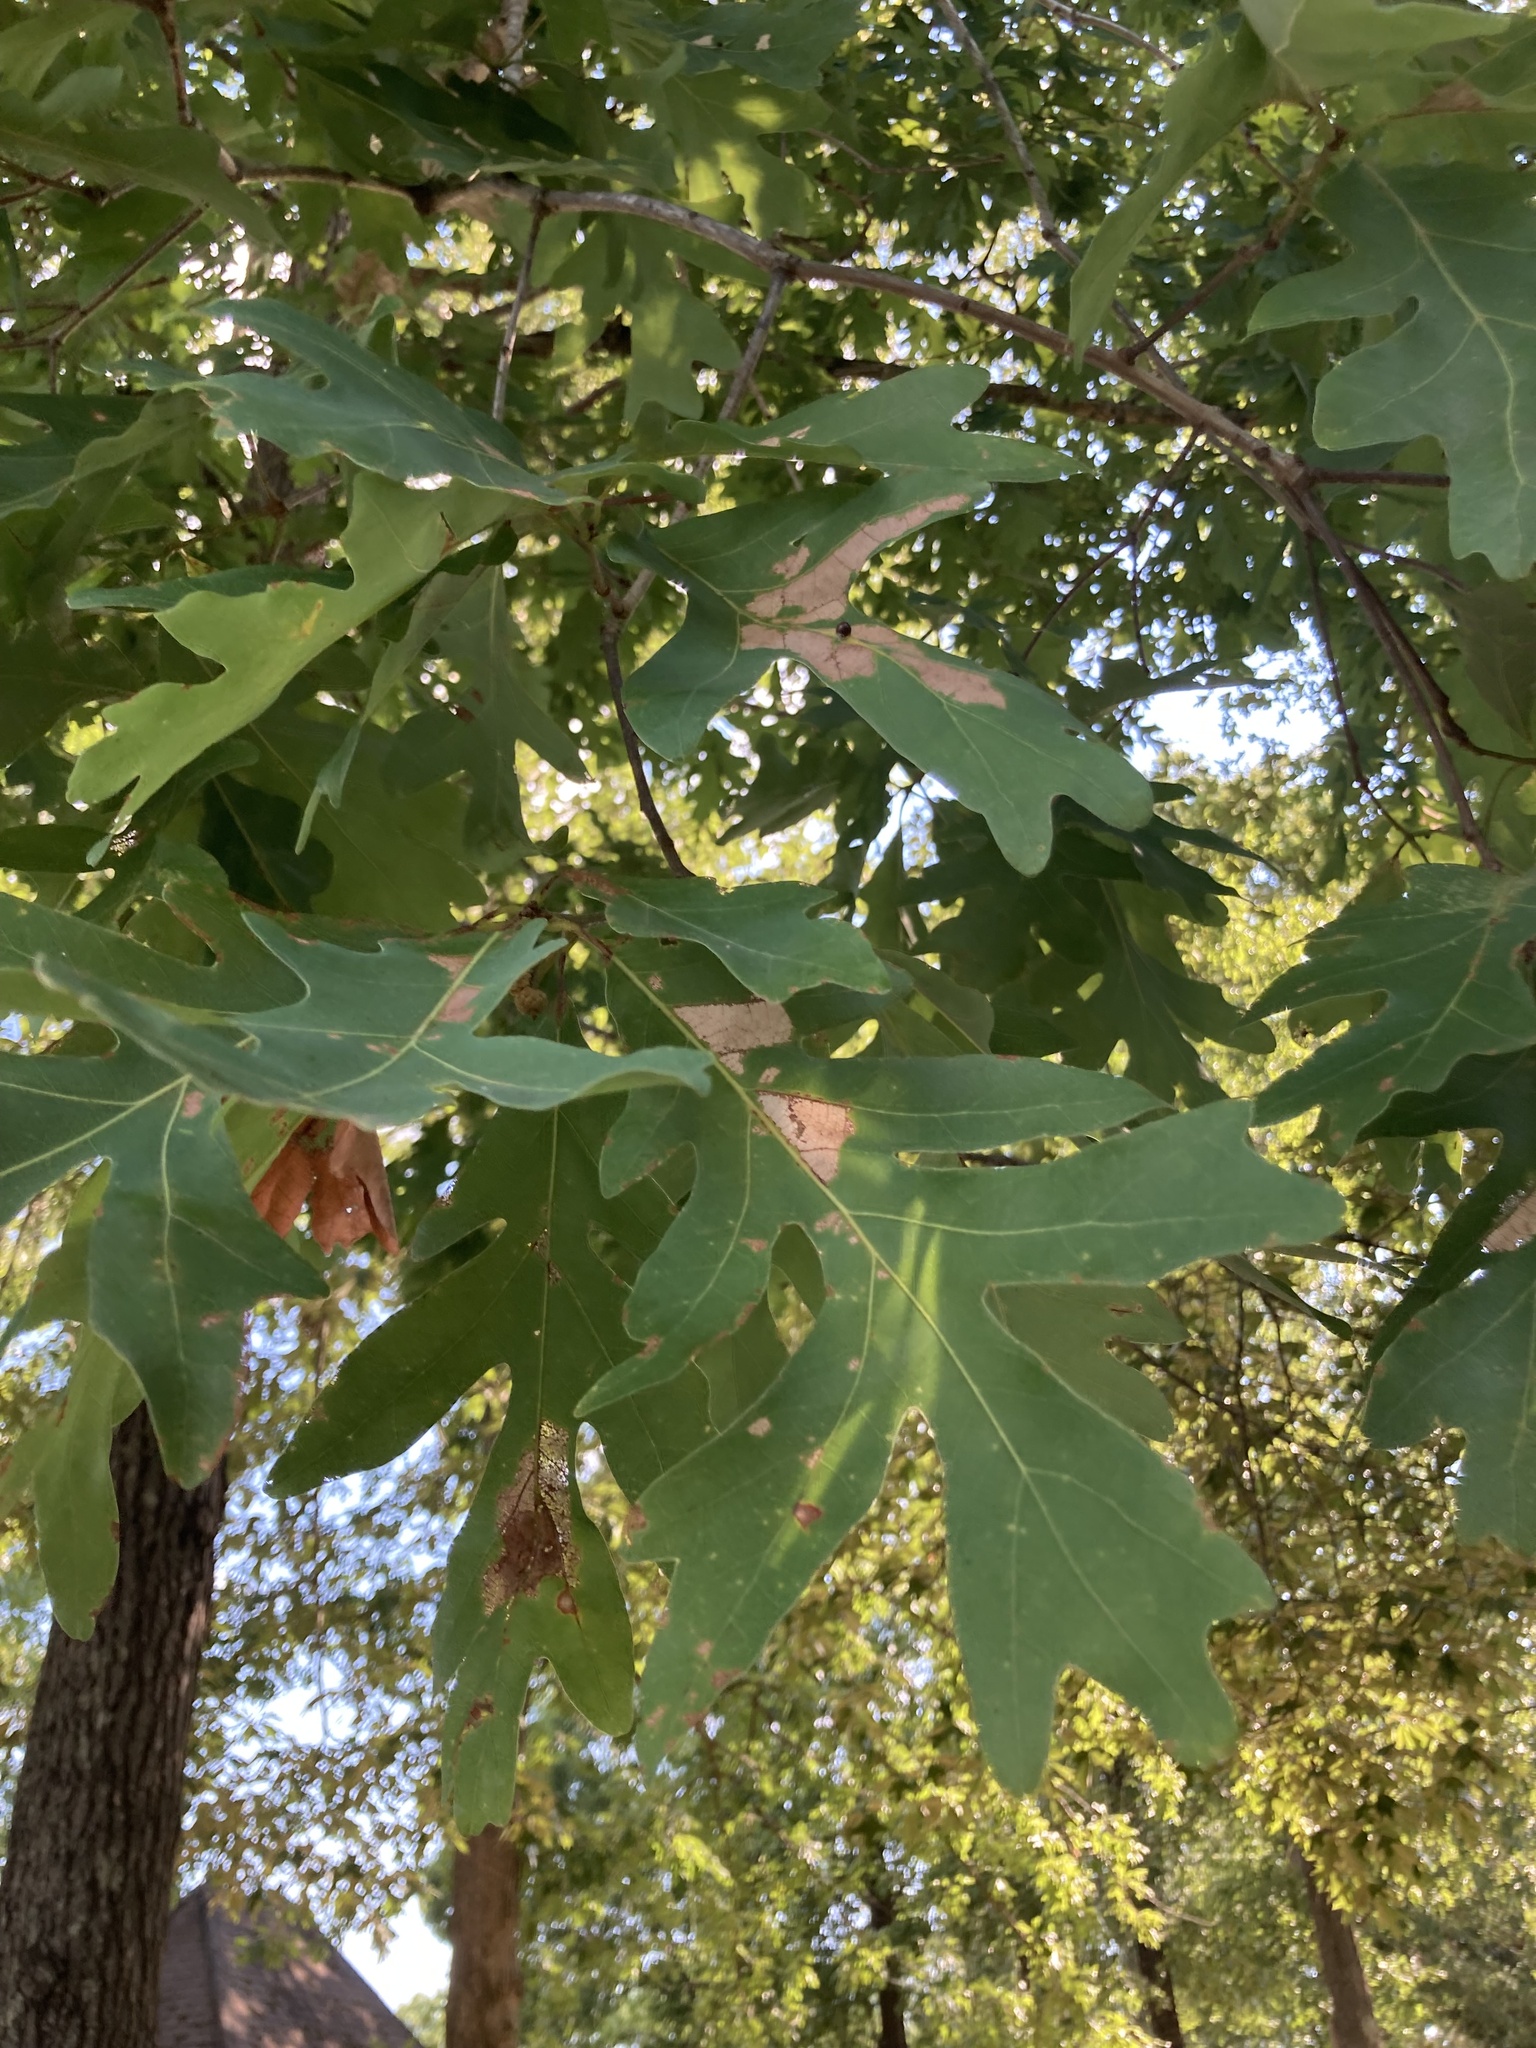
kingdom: Plantae
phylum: Tracheophyta
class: Magnoliopsida
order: Fagales
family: Fagaceae
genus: Quercus
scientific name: Quercus alba
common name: White oak
